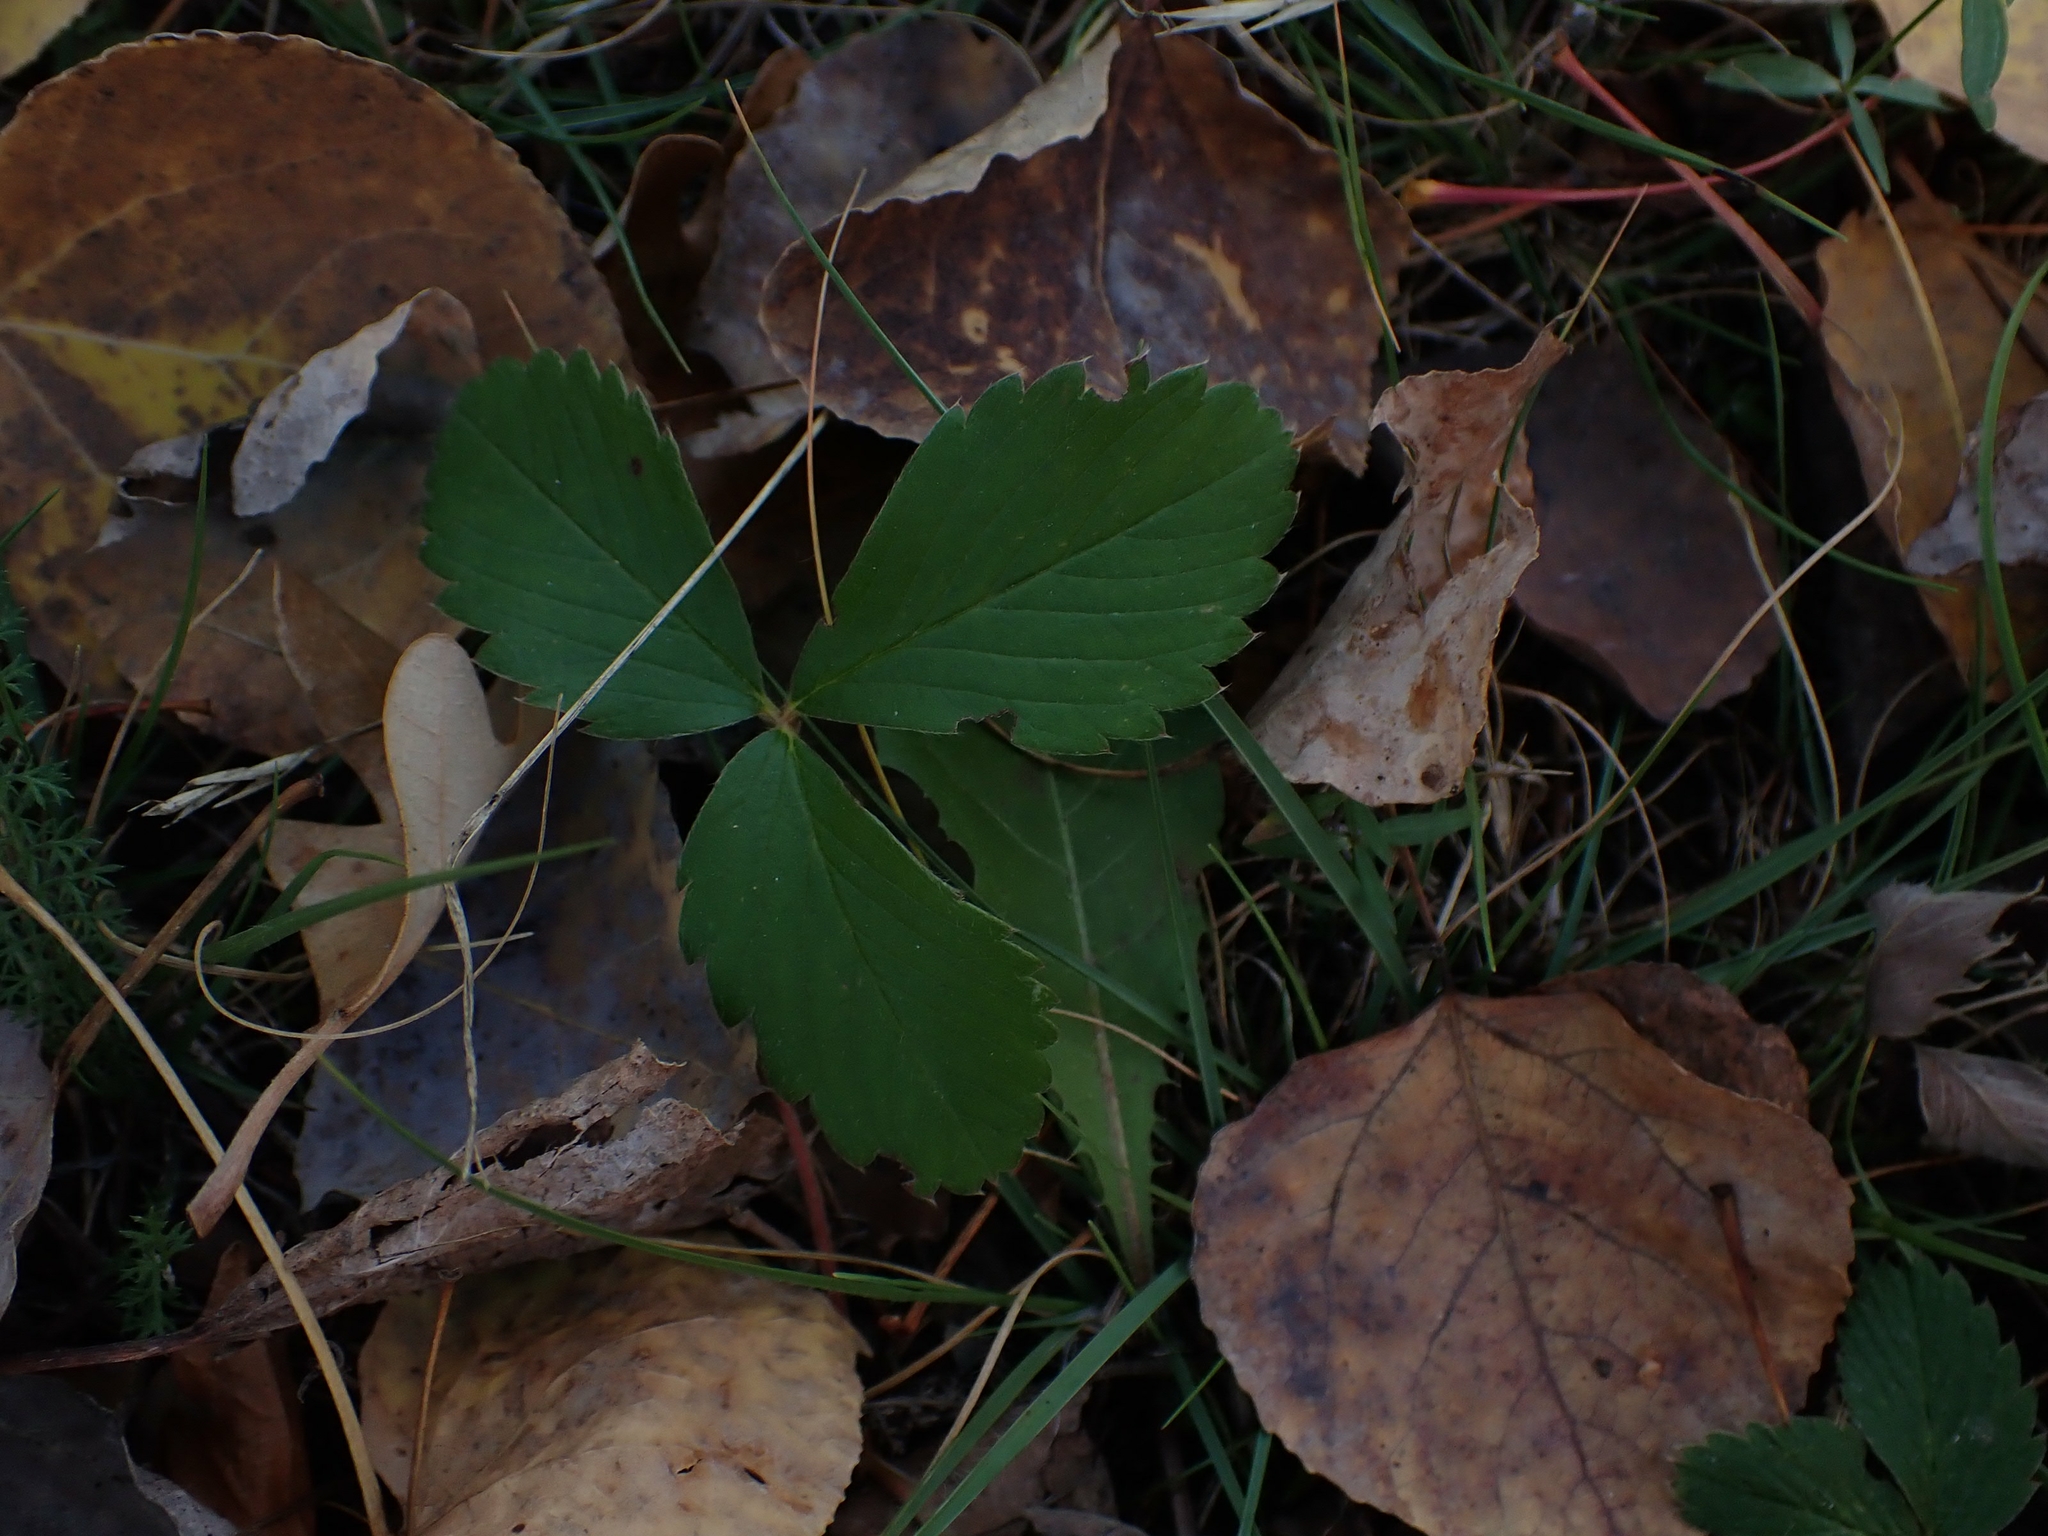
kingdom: Plantae
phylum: Tracheophyta
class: Magnoliopsida
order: Rosales
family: Rosaceae
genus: Fragaria
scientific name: Fragaria virginiana
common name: Thickleaved wild strawberry
